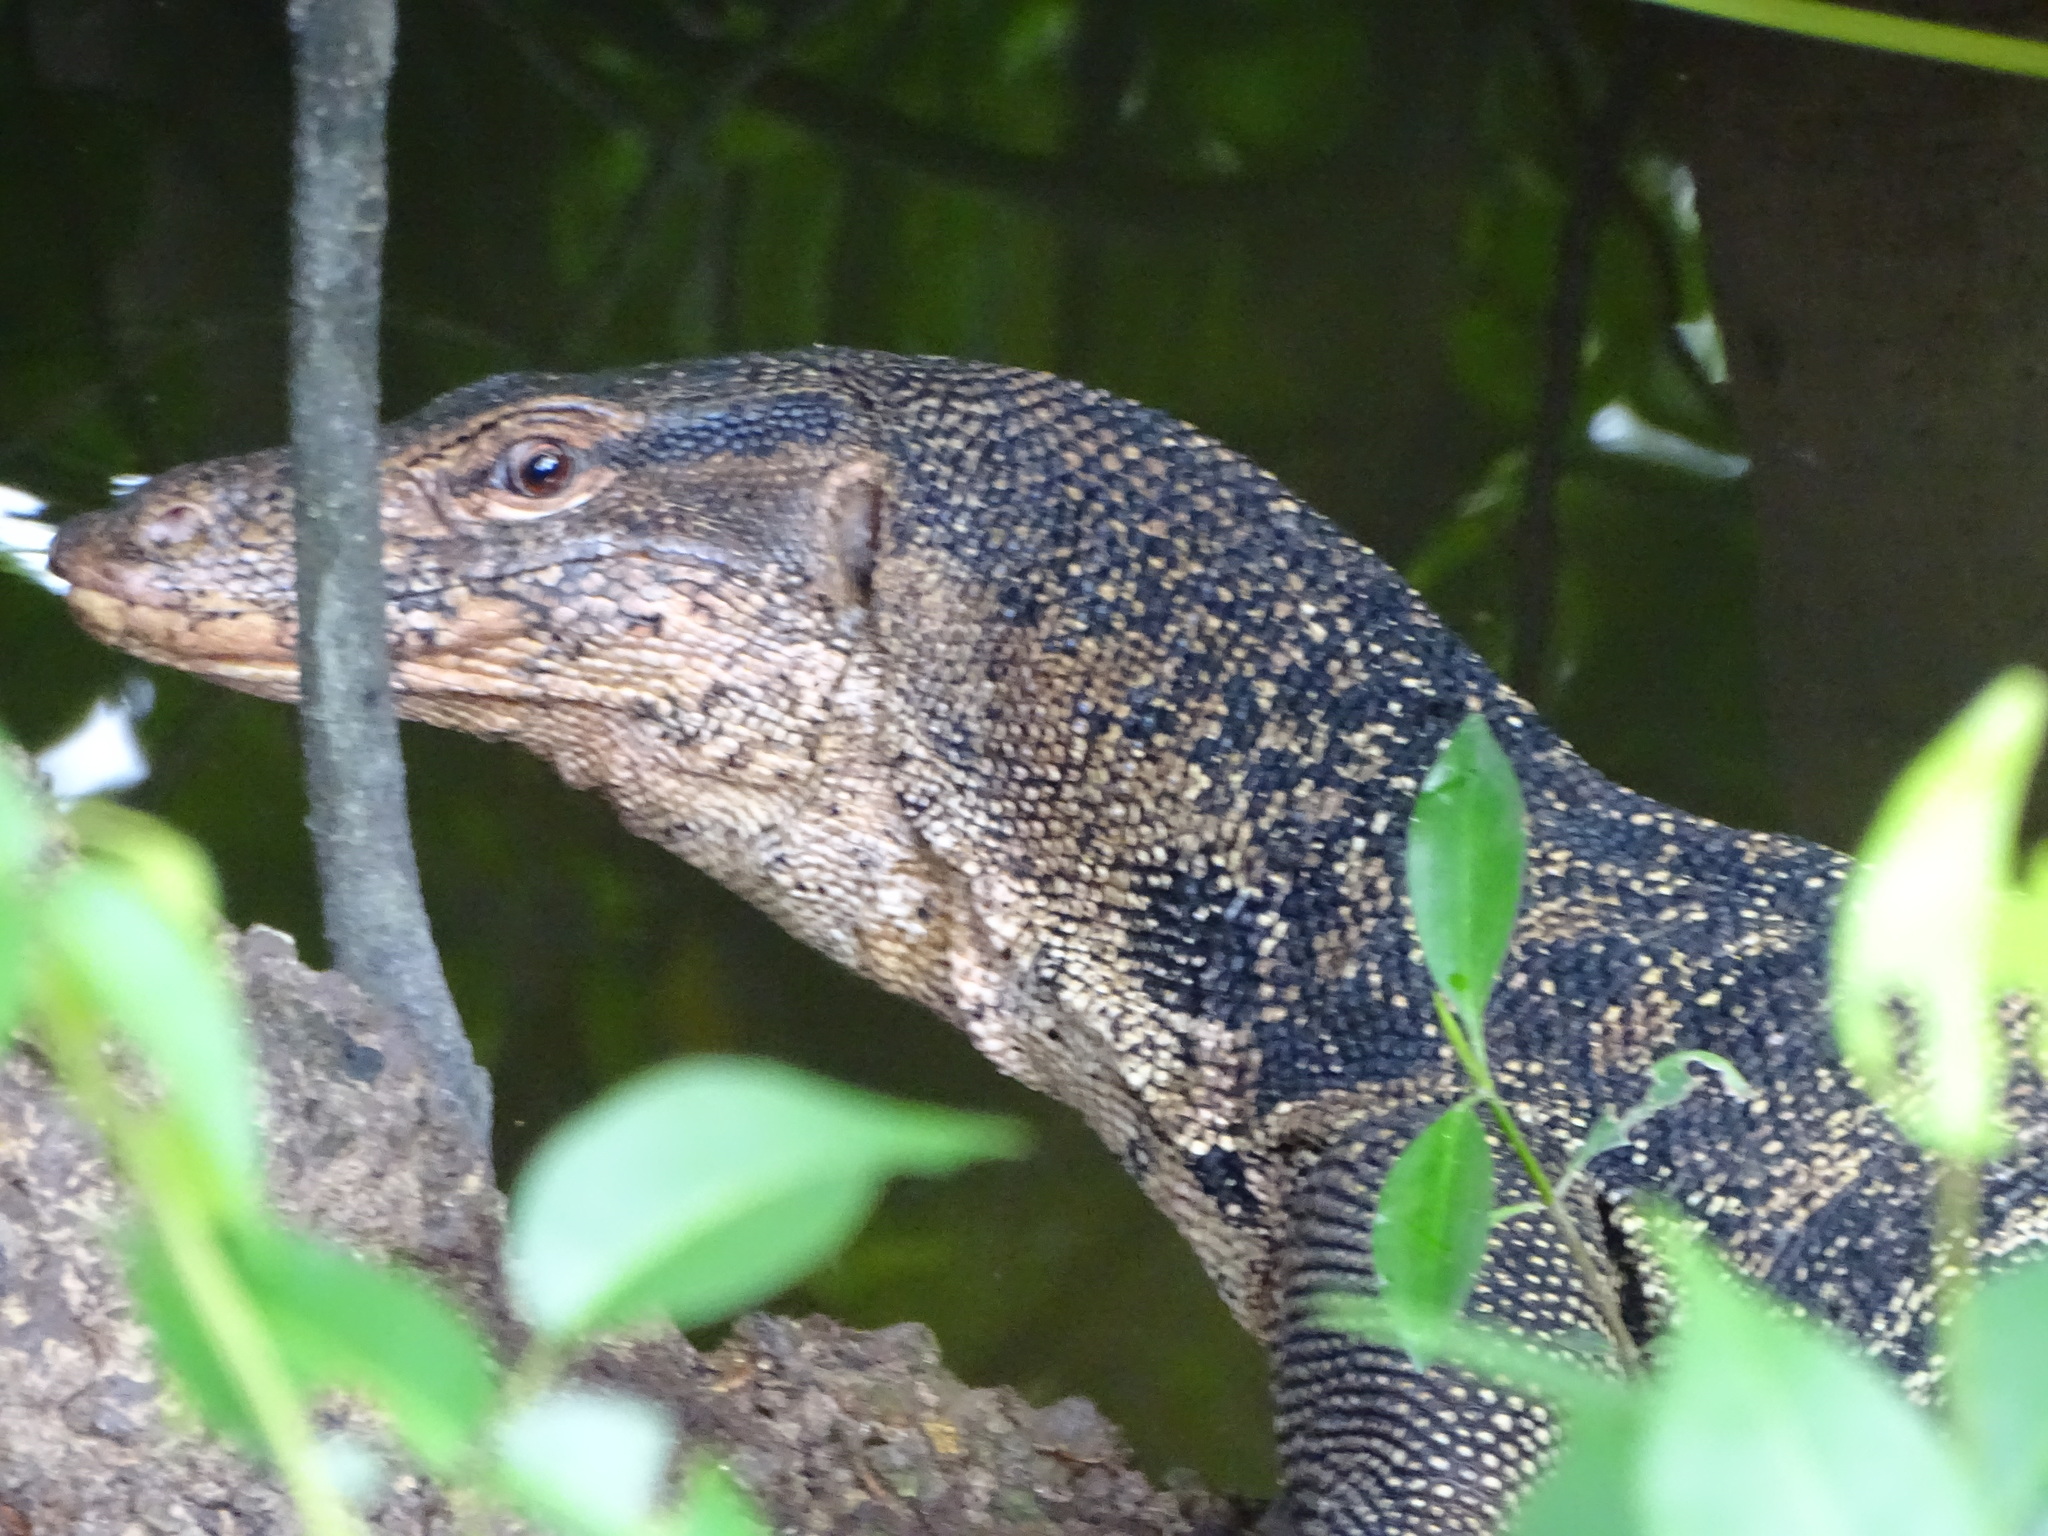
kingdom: Animalia
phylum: Chordata
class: Squamata
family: Varanidae
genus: Varanus
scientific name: Varanus salvator
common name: Common water monitor
